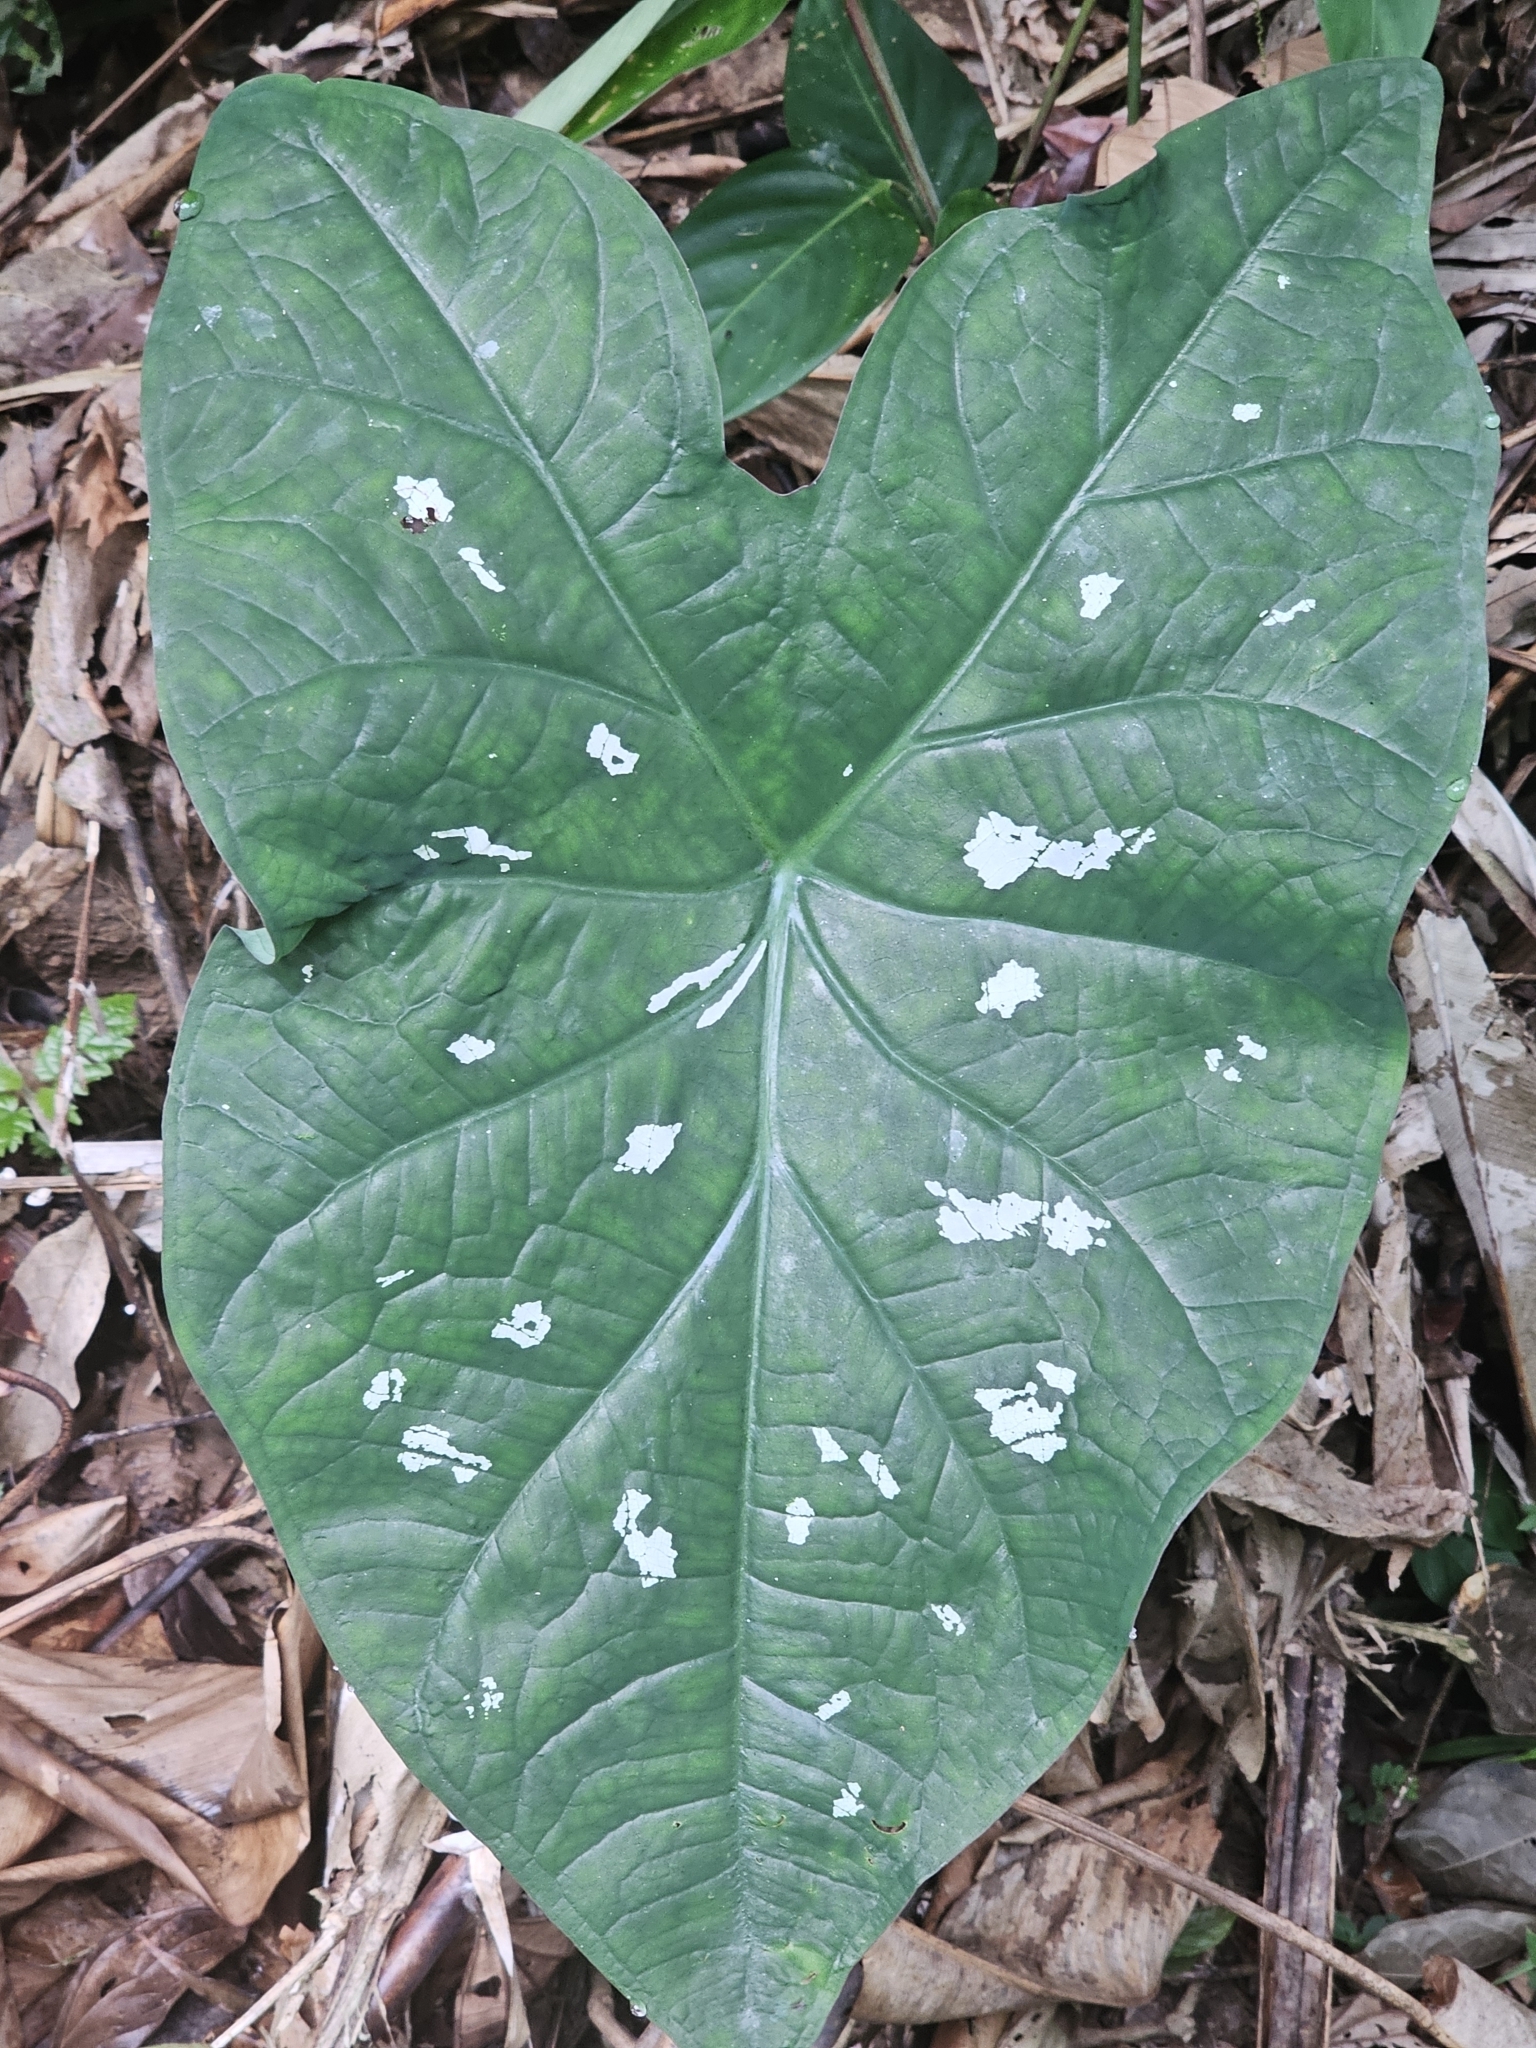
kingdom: Plantae
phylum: Tracheophyta
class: Liliopsida
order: Alismatales
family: Araceae
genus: Caladium
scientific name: Caladium bicolor
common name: Artist's pallet
